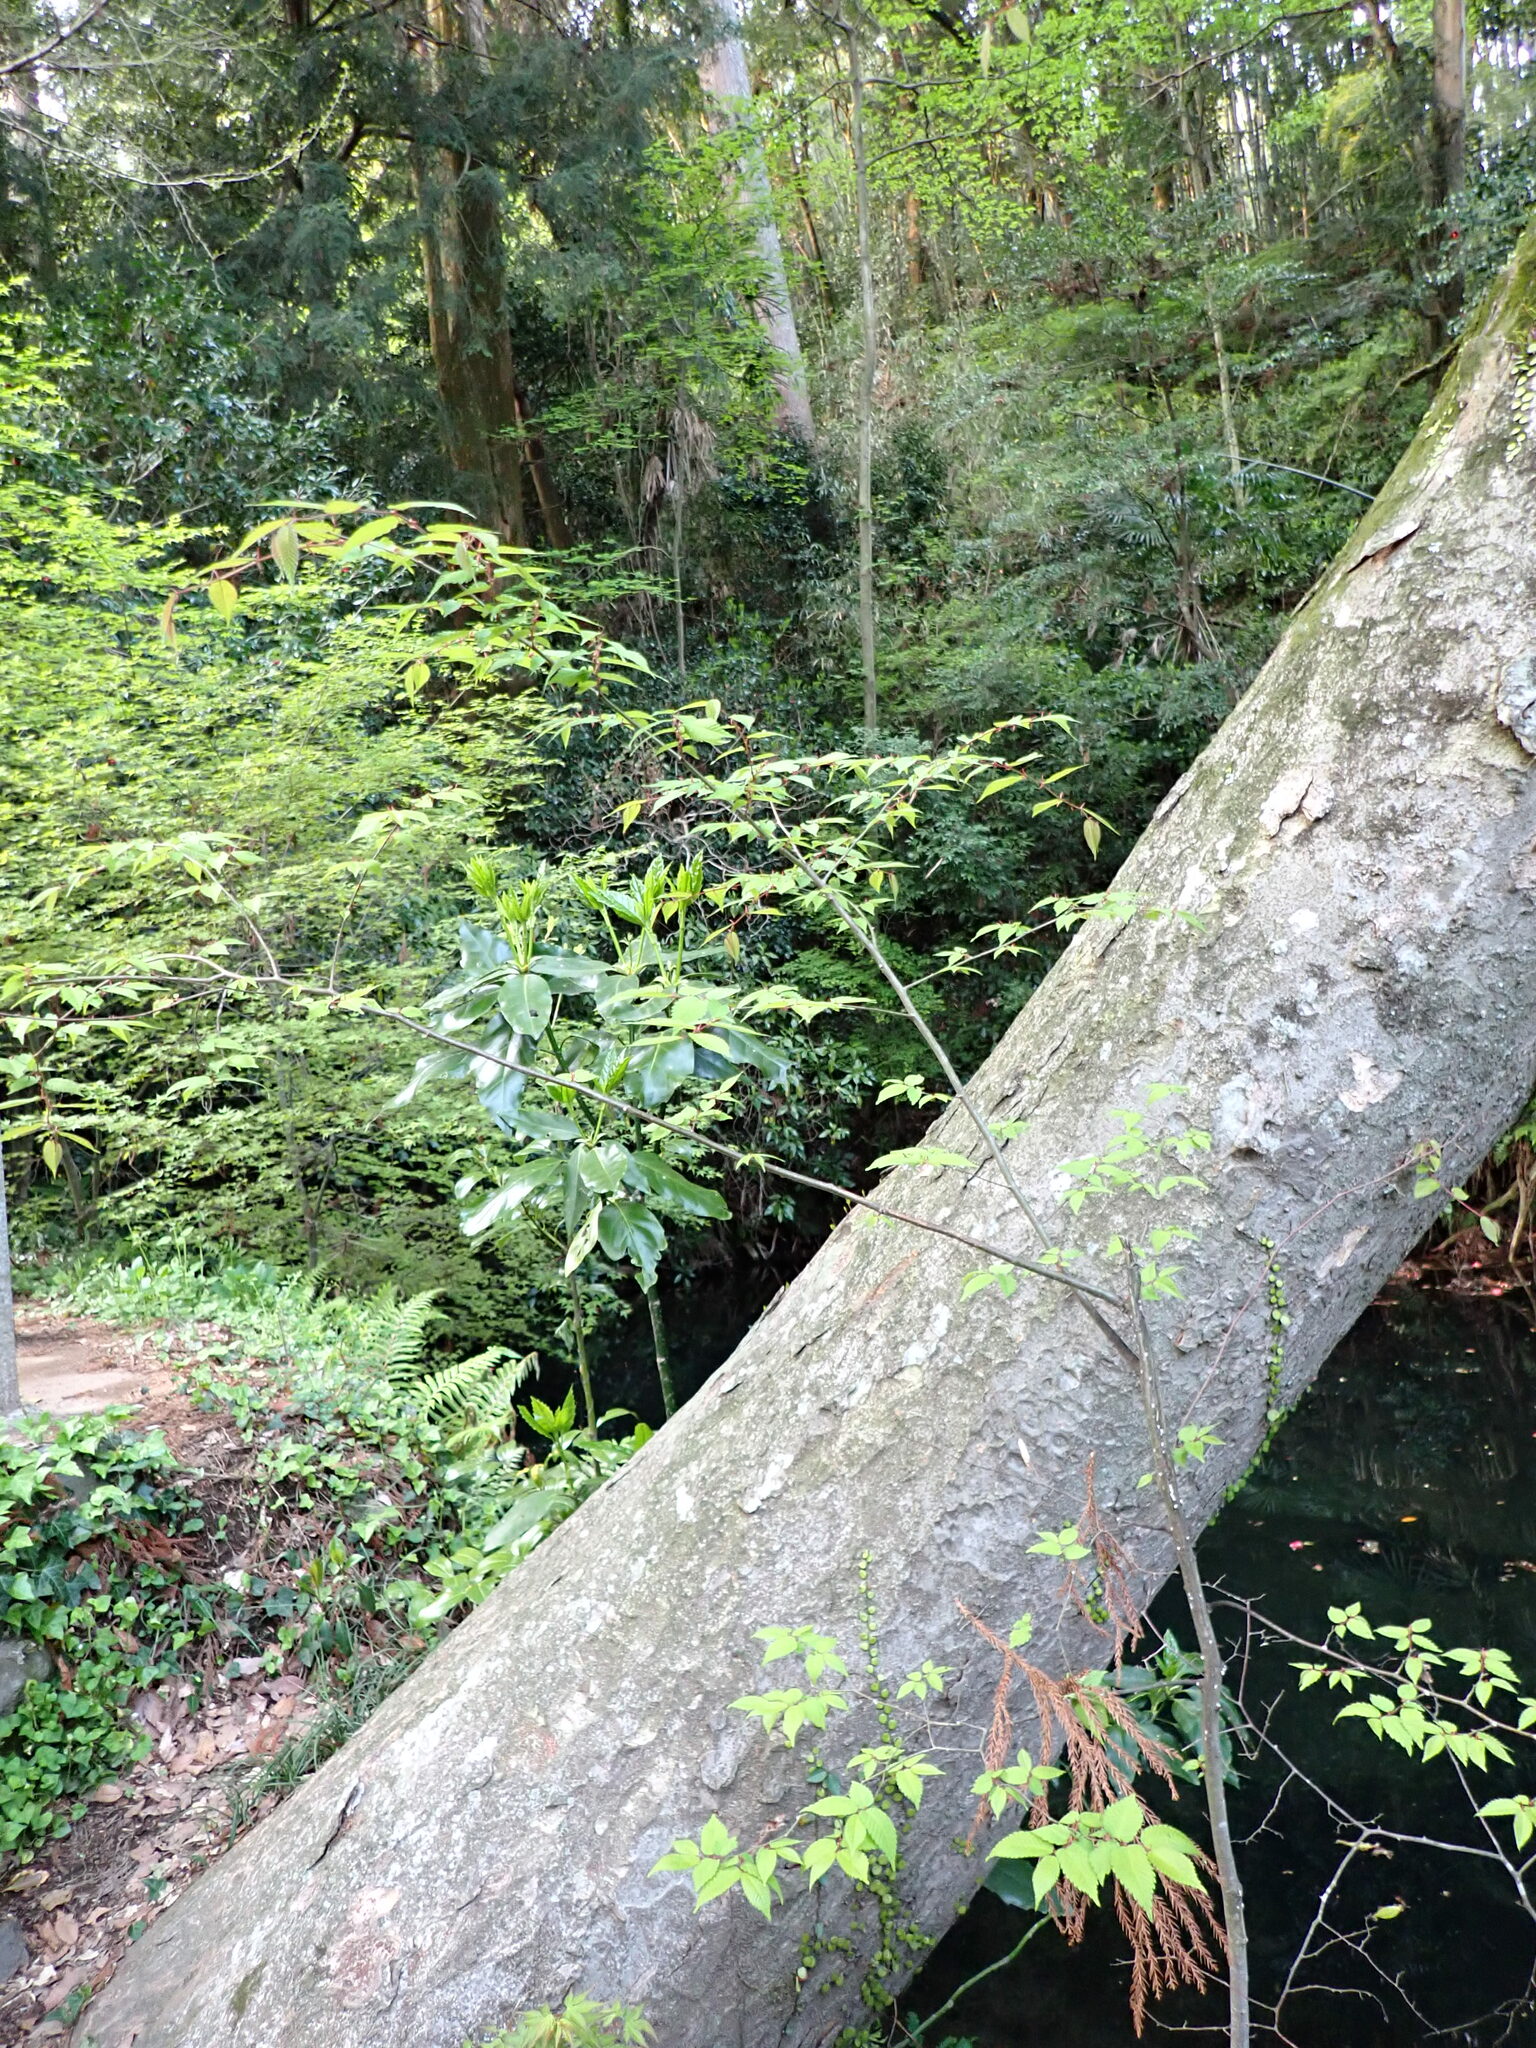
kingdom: Plantae
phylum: Tracheophyta
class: Magnoliopsida
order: Rosales
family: Ulmaceae
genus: Zelkova
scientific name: Zelkova serrata
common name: Japanese zelkova
